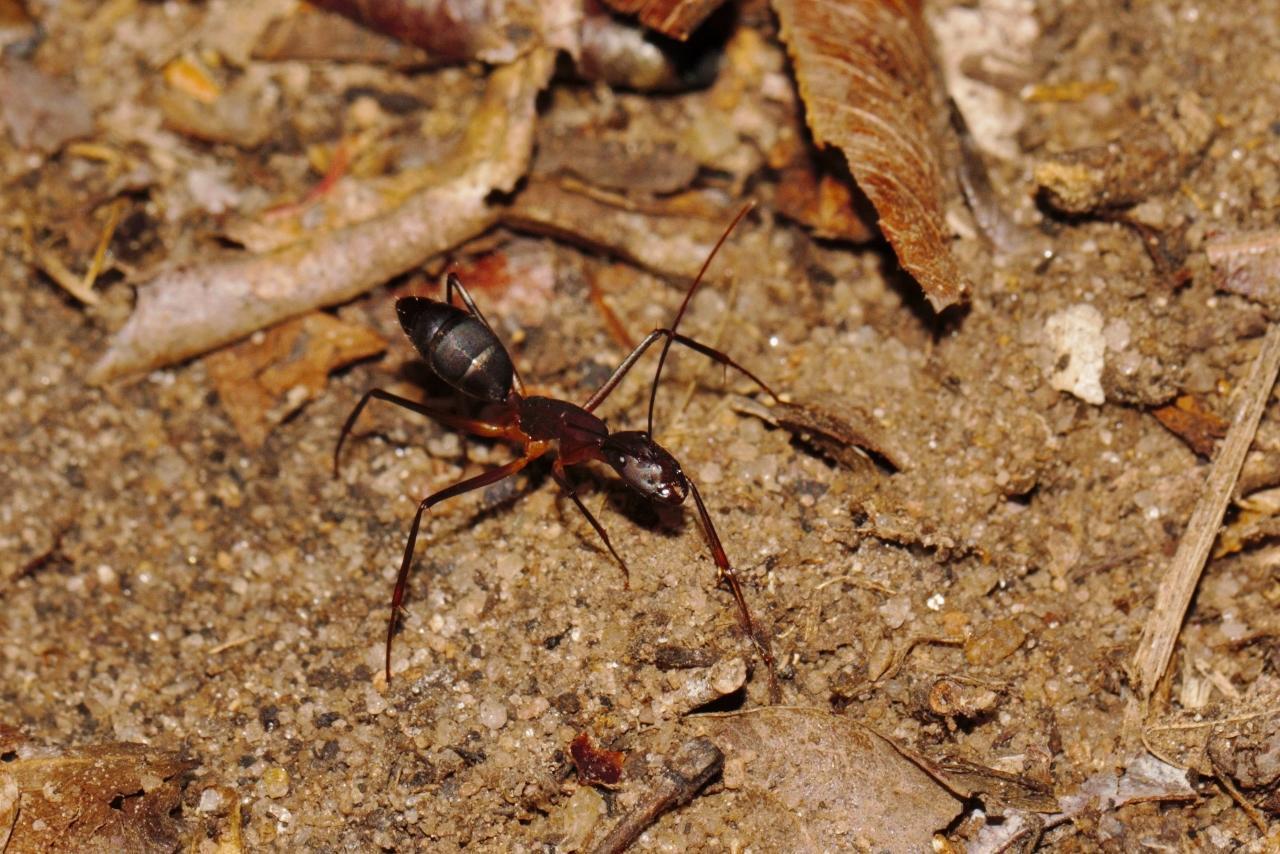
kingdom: Animalia
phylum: Arthropoda
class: Insecta
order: Hymenoptera
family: Formicidae
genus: Camponotus
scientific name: Camponotus etiolipes
